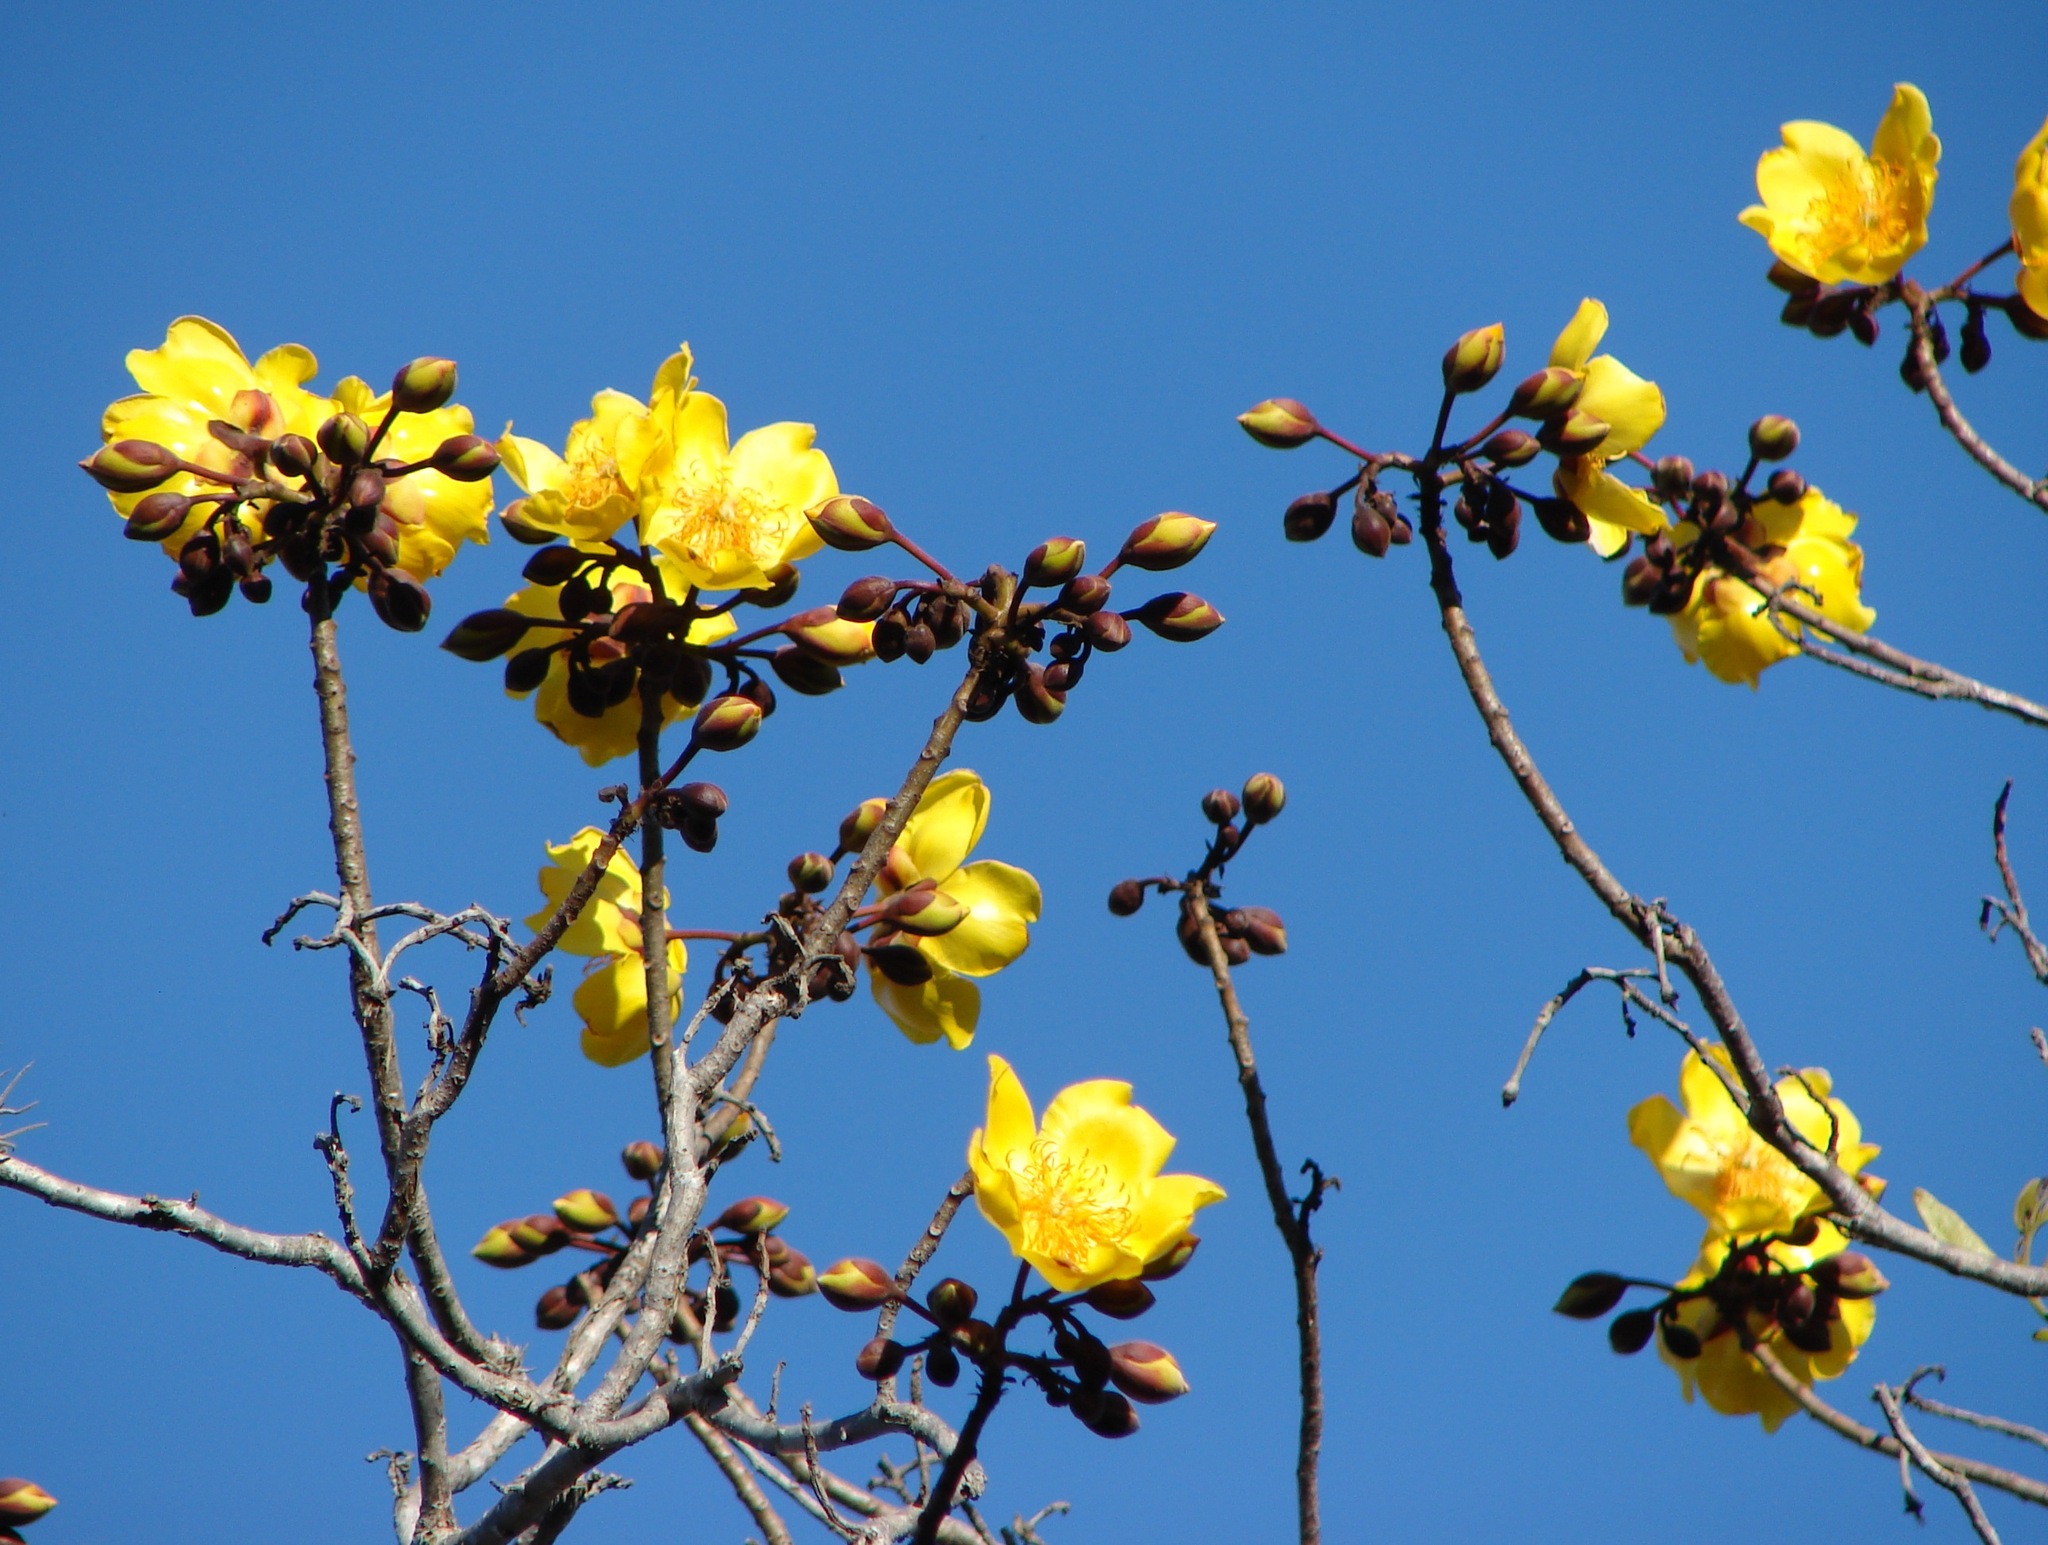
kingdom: Plantae
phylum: Tracheophyta
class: Magnoliopsida
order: Malvales
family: Cochlospermaceae
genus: Cochlospermum
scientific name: Cochlospermum vitifolium
